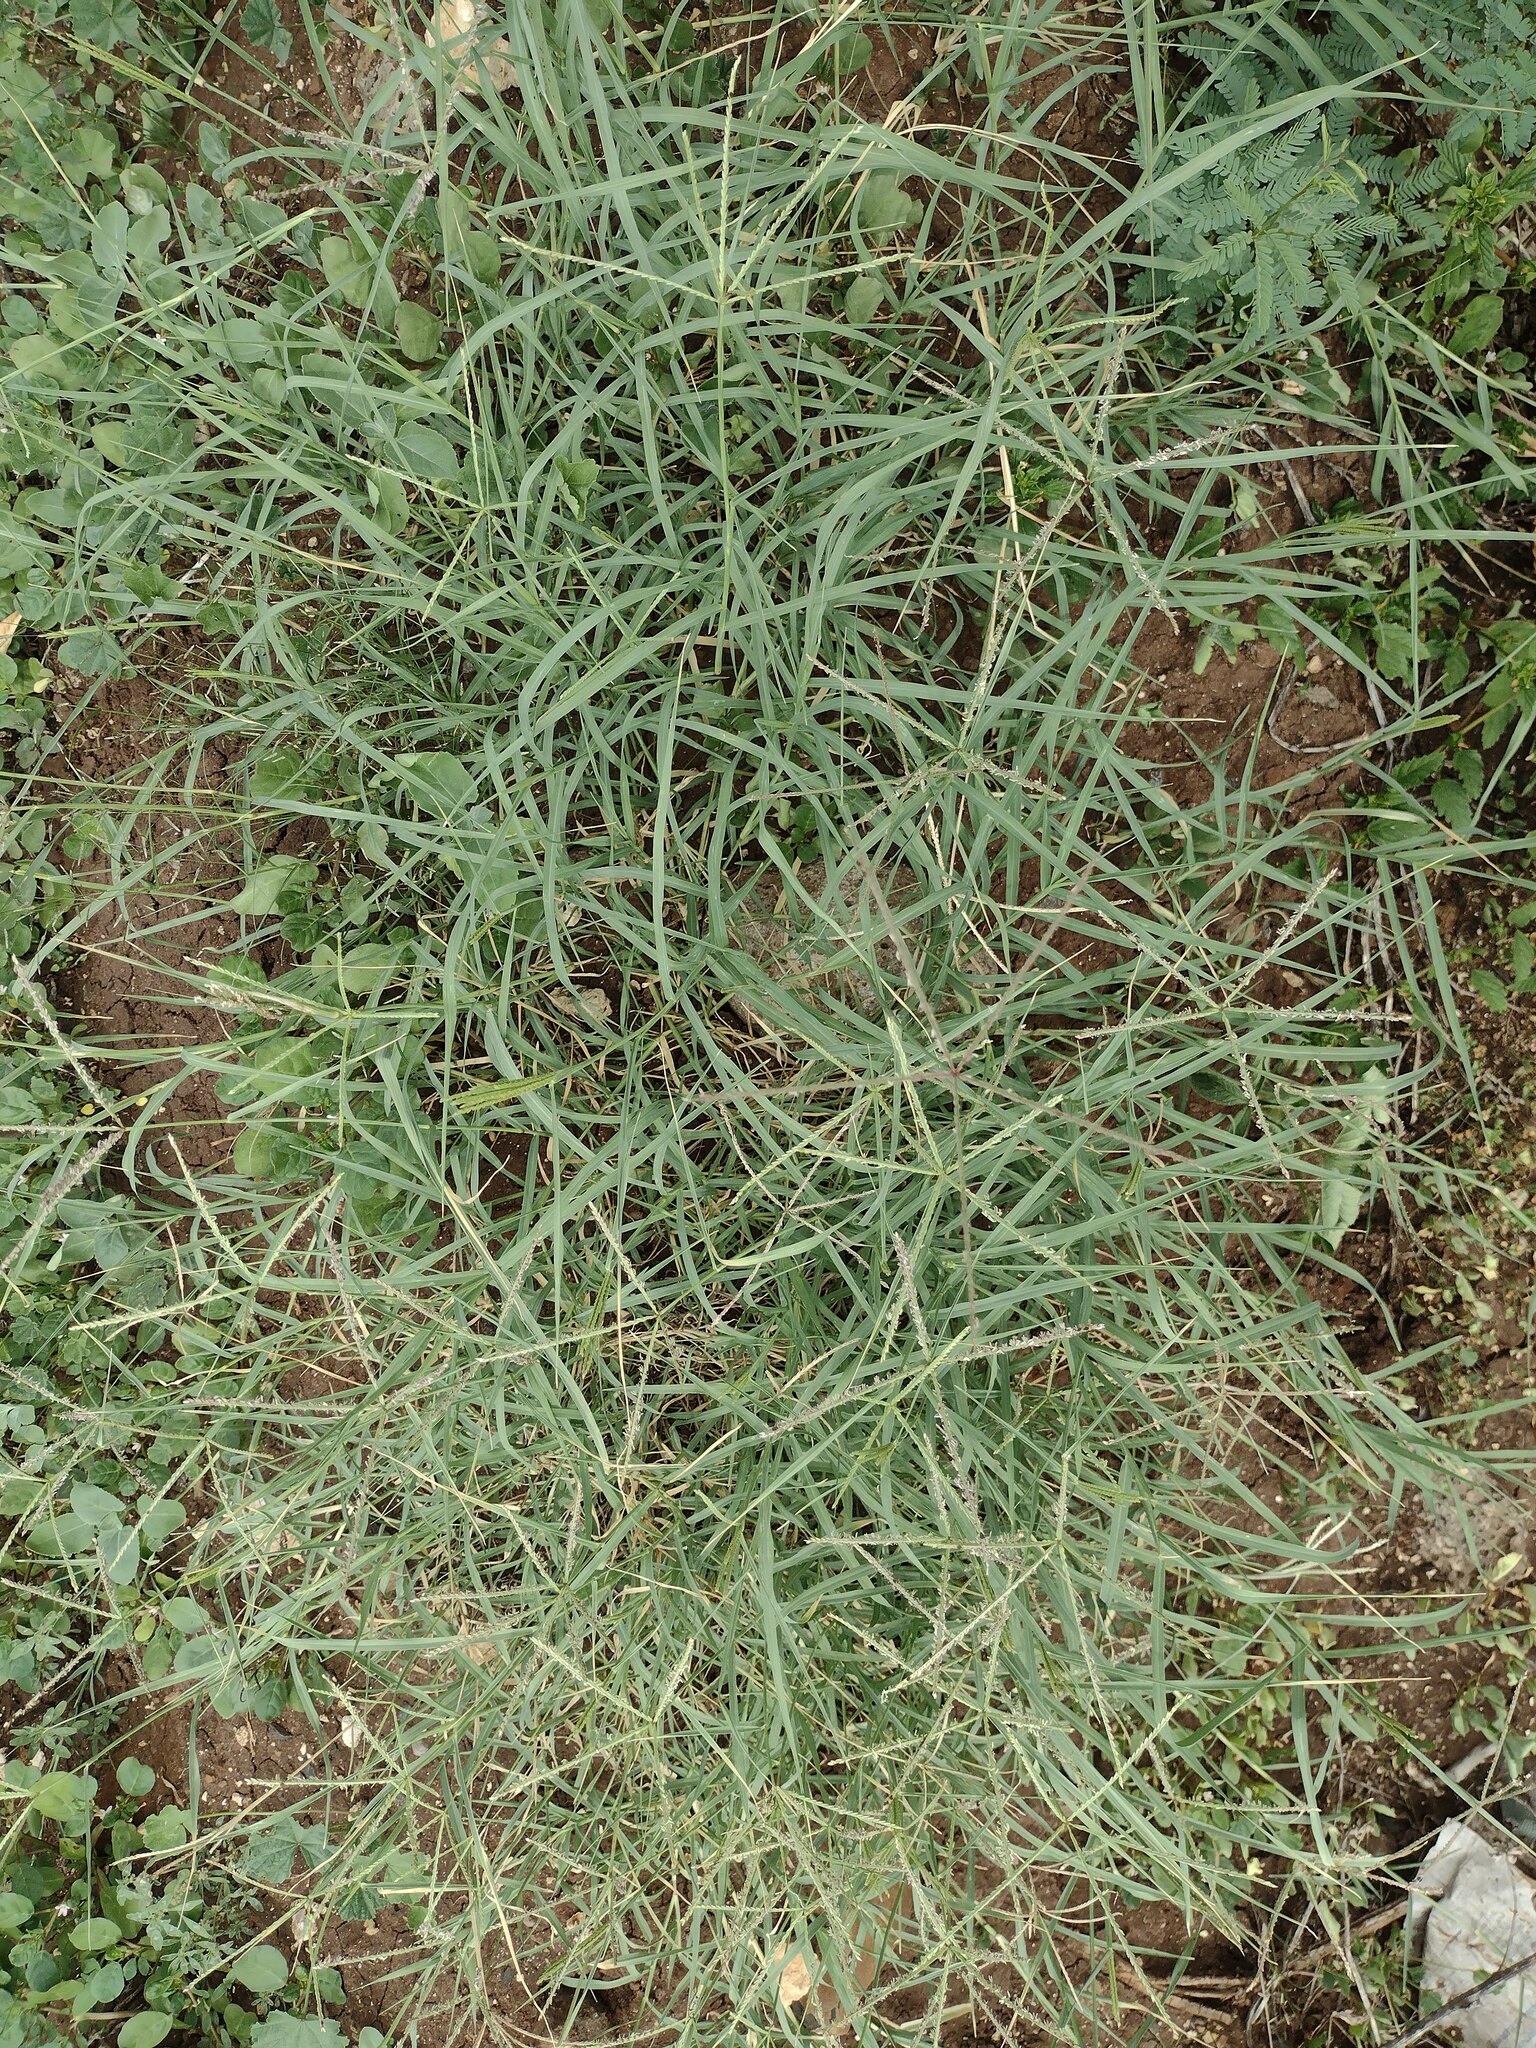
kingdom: Plantae
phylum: Tracheophyta
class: Liliopsida
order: Poales
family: Poaceae
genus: Cynodon
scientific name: Cynodon nlemfuensis
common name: African bermudagrass
